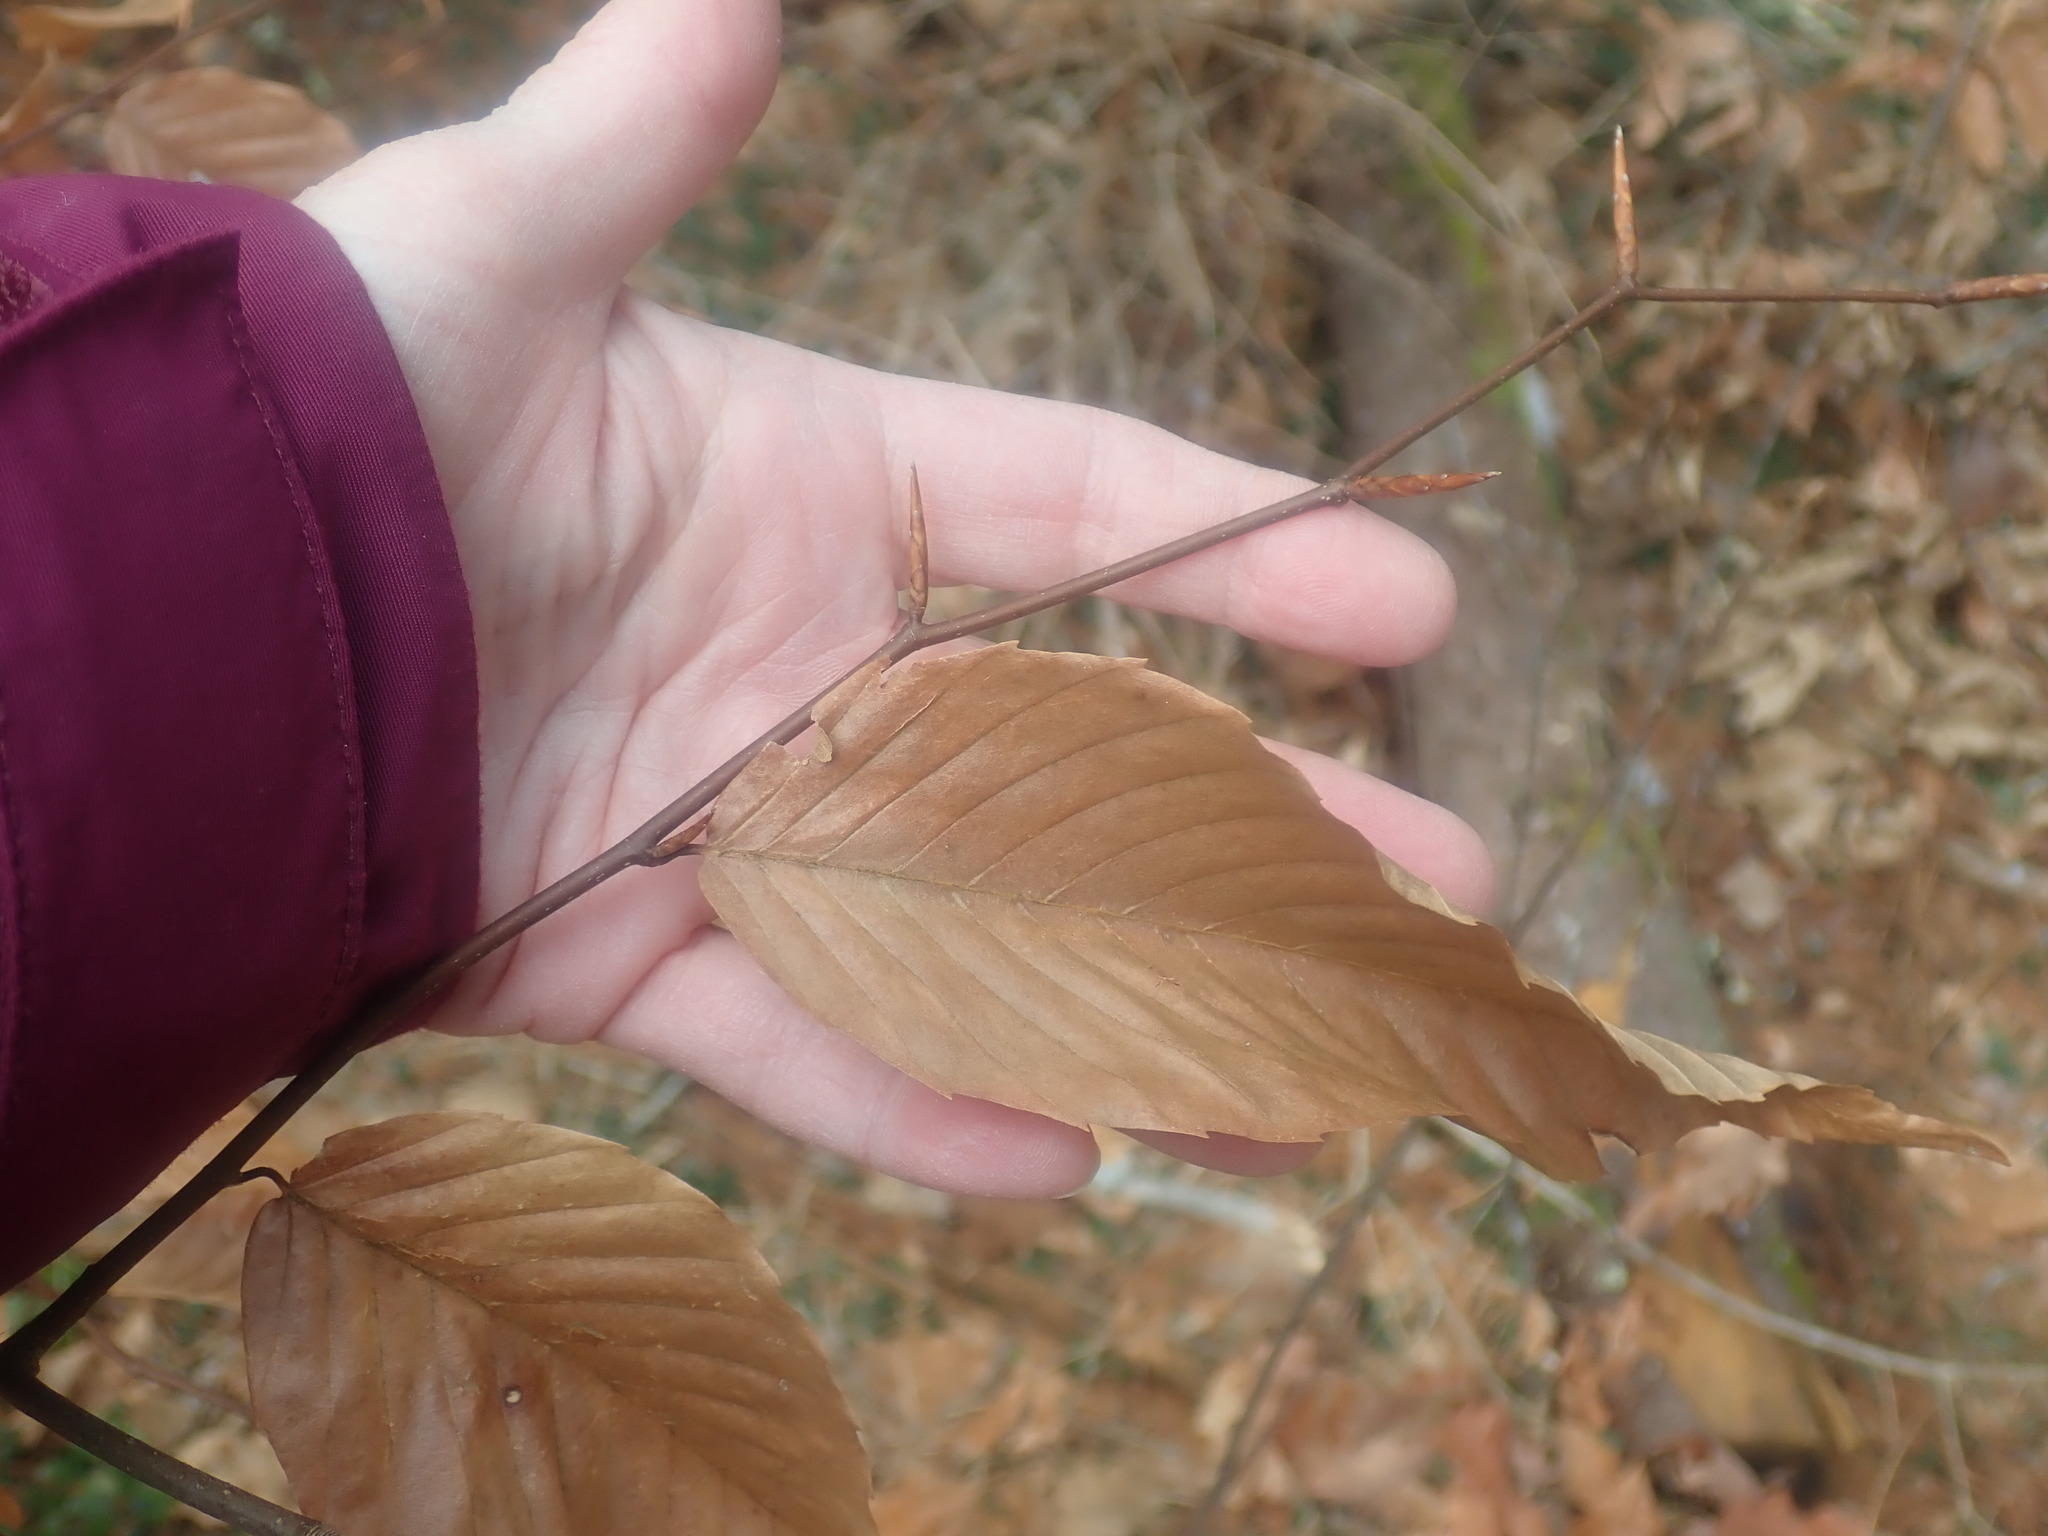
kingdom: Plantae
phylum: Tracheophyta
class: Magnoliopsida
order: Fagales
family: Fagaceae
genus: Fagus
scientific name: Fagus grandifolia
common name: American beech
